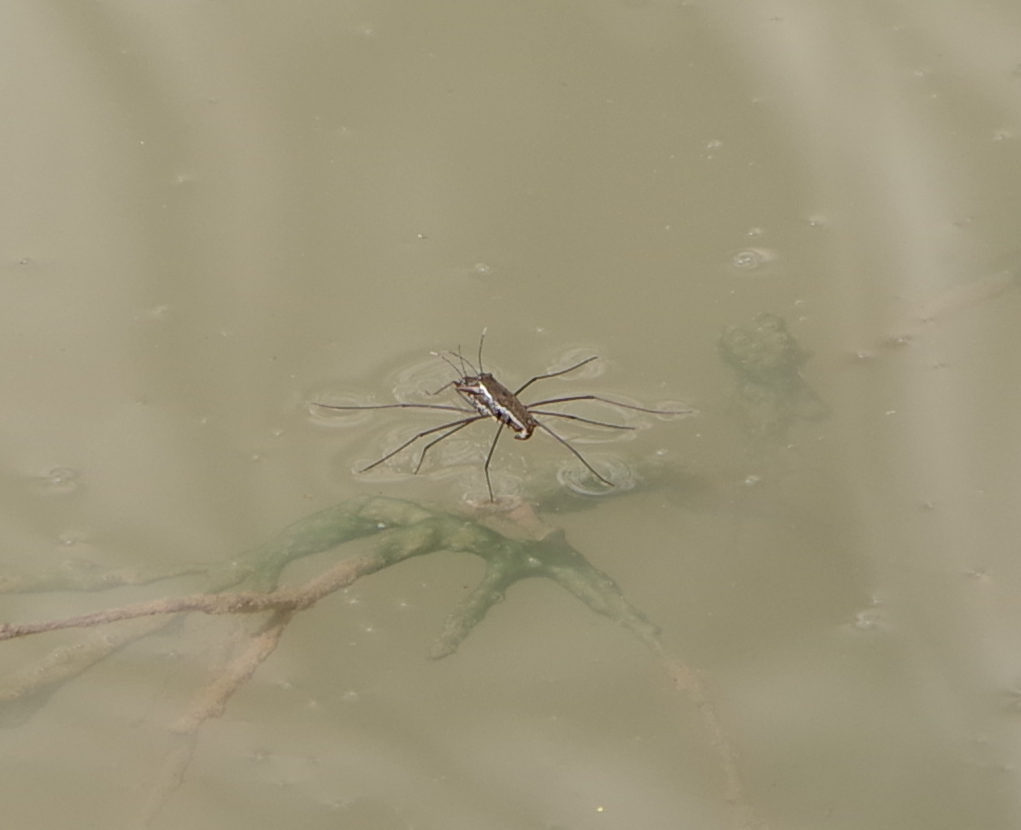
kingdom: Animalia
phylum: Arthropoda
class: Insecta
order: Hemiptera
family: Gerridae
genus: Aquarius
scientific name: Aquarius remigis
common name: Common water strider
